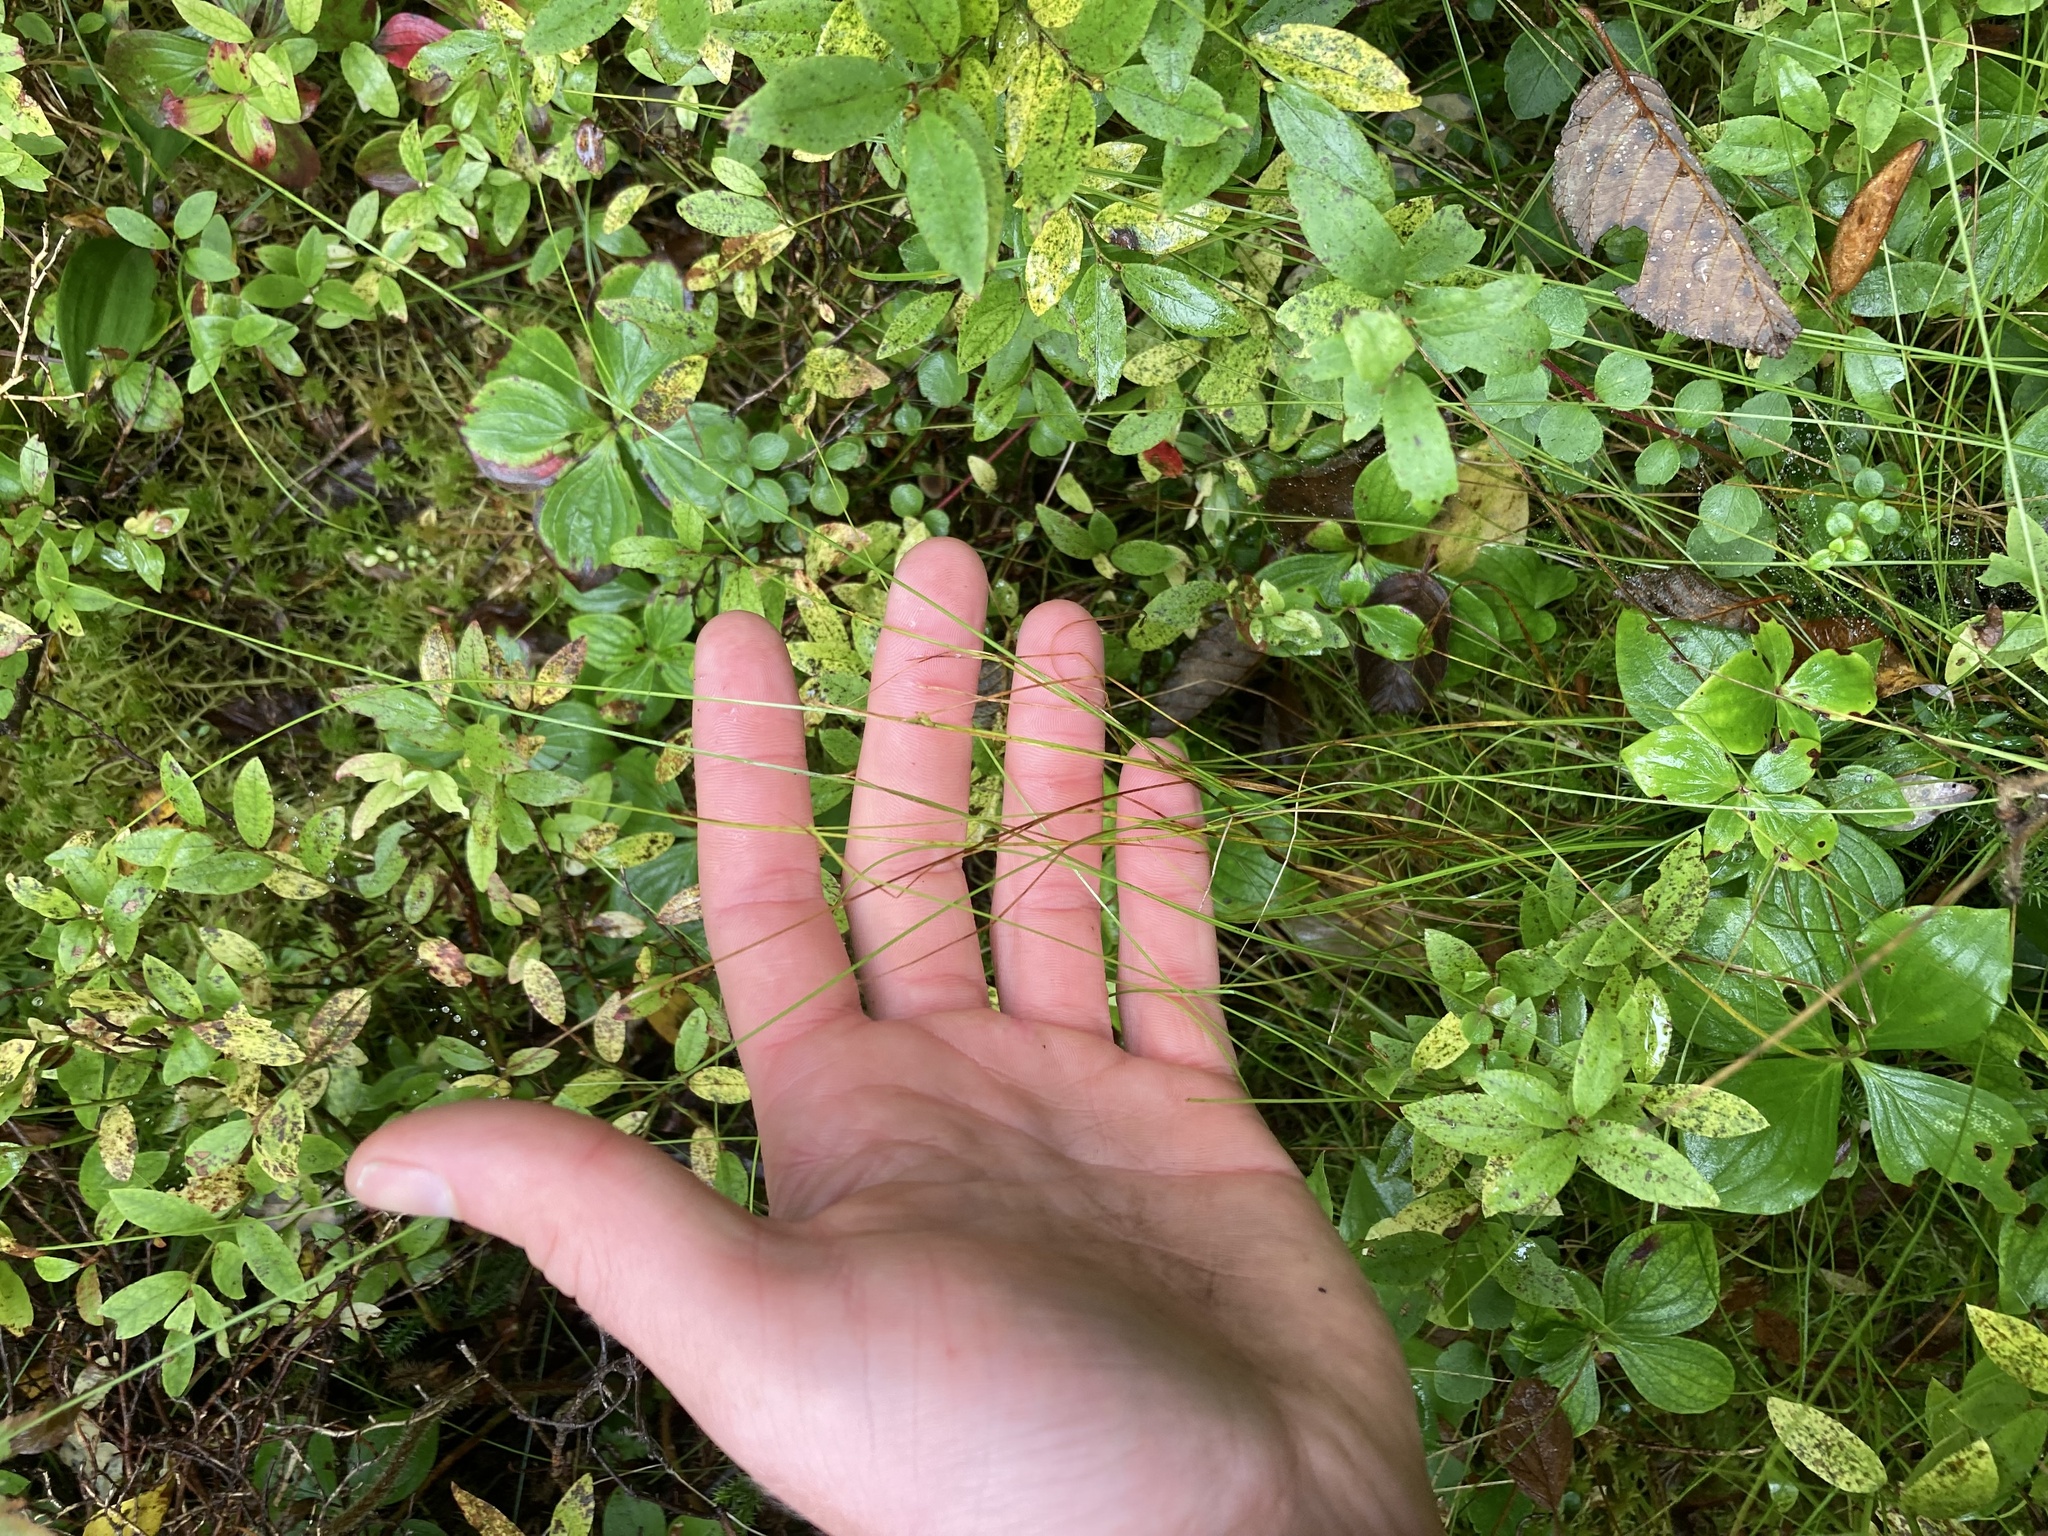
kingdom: Plantae
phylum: Tracheophyta
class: Liliopsida
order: Poales
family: Cyperaceae
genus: Carex
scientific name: Carex leptalea
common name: Bristly-stalked sedge
